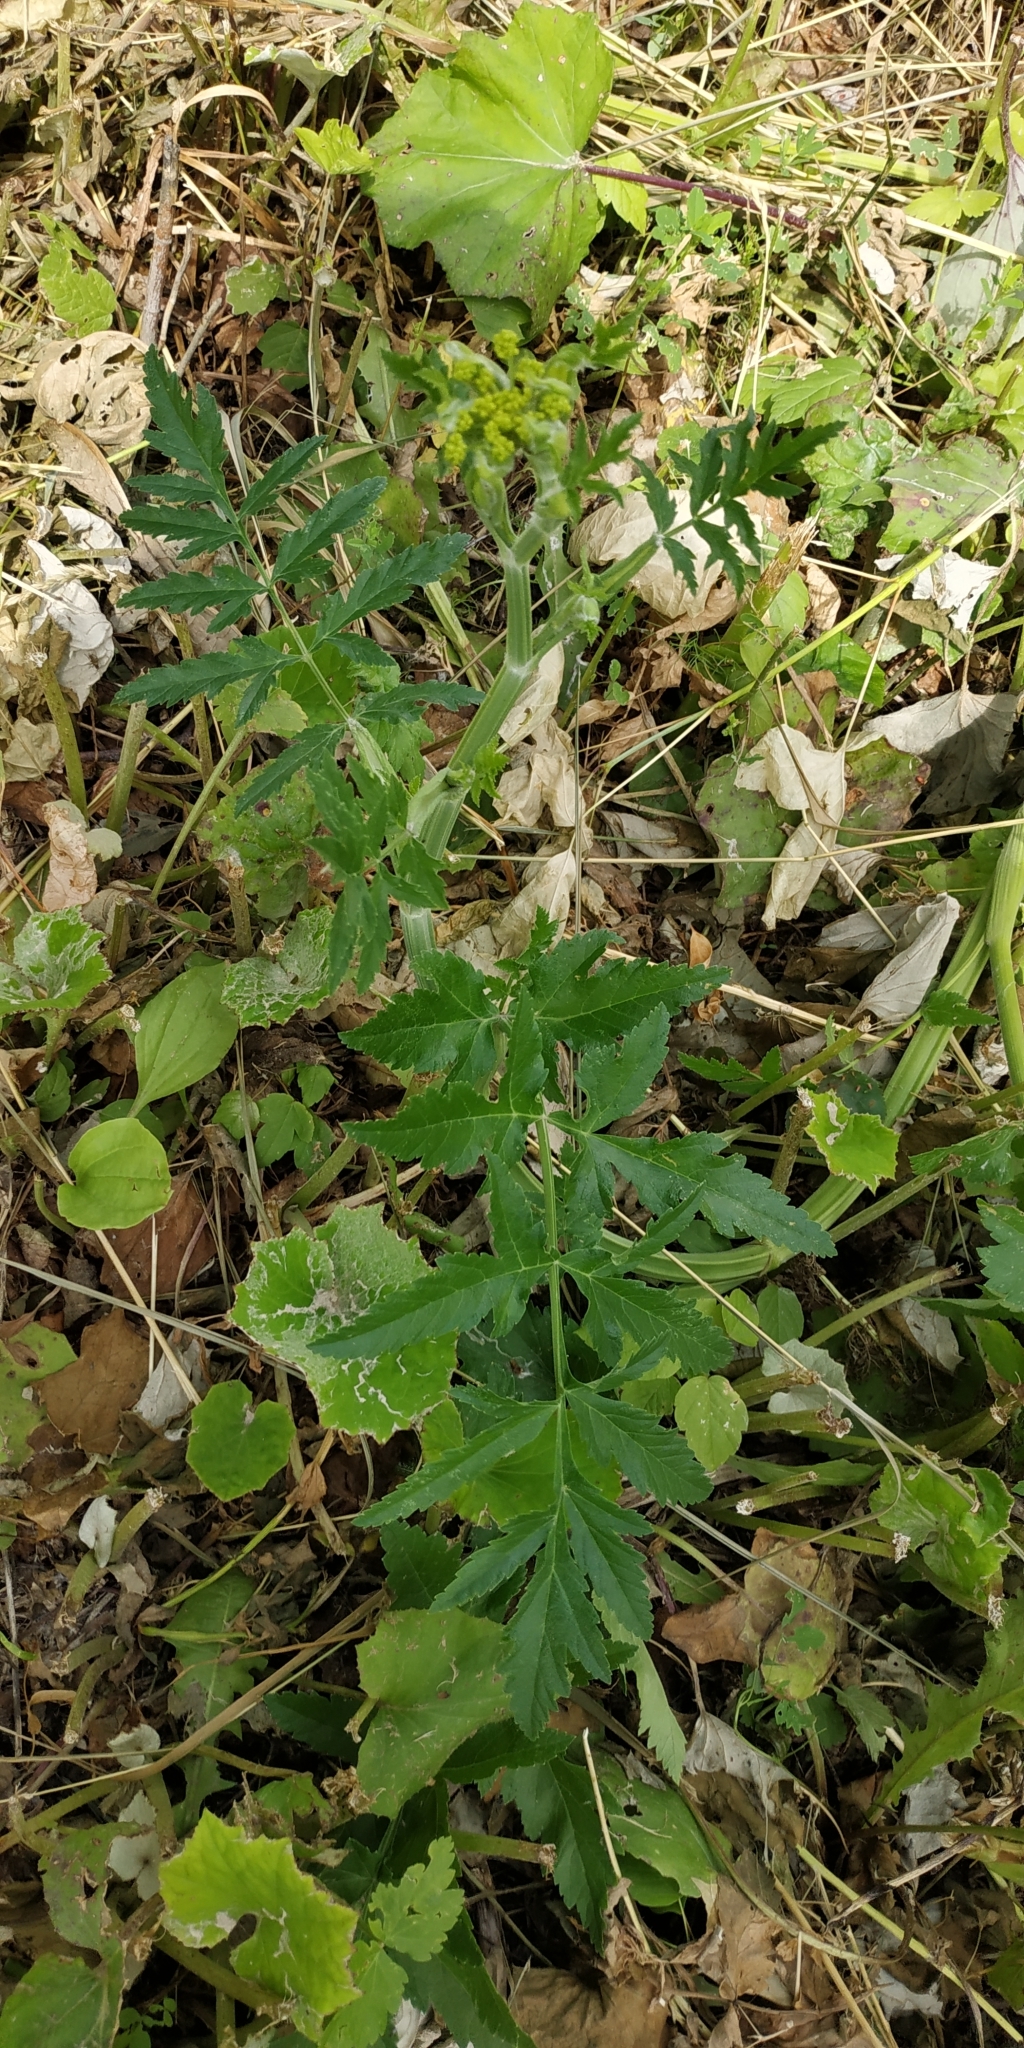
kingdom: Plantae
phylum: Tracheophyta
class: Magnoliopsida
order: Apiales
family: Apiaceae
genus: Pastinaca
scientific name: Pastinaca sativa
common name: Wild parsnip
